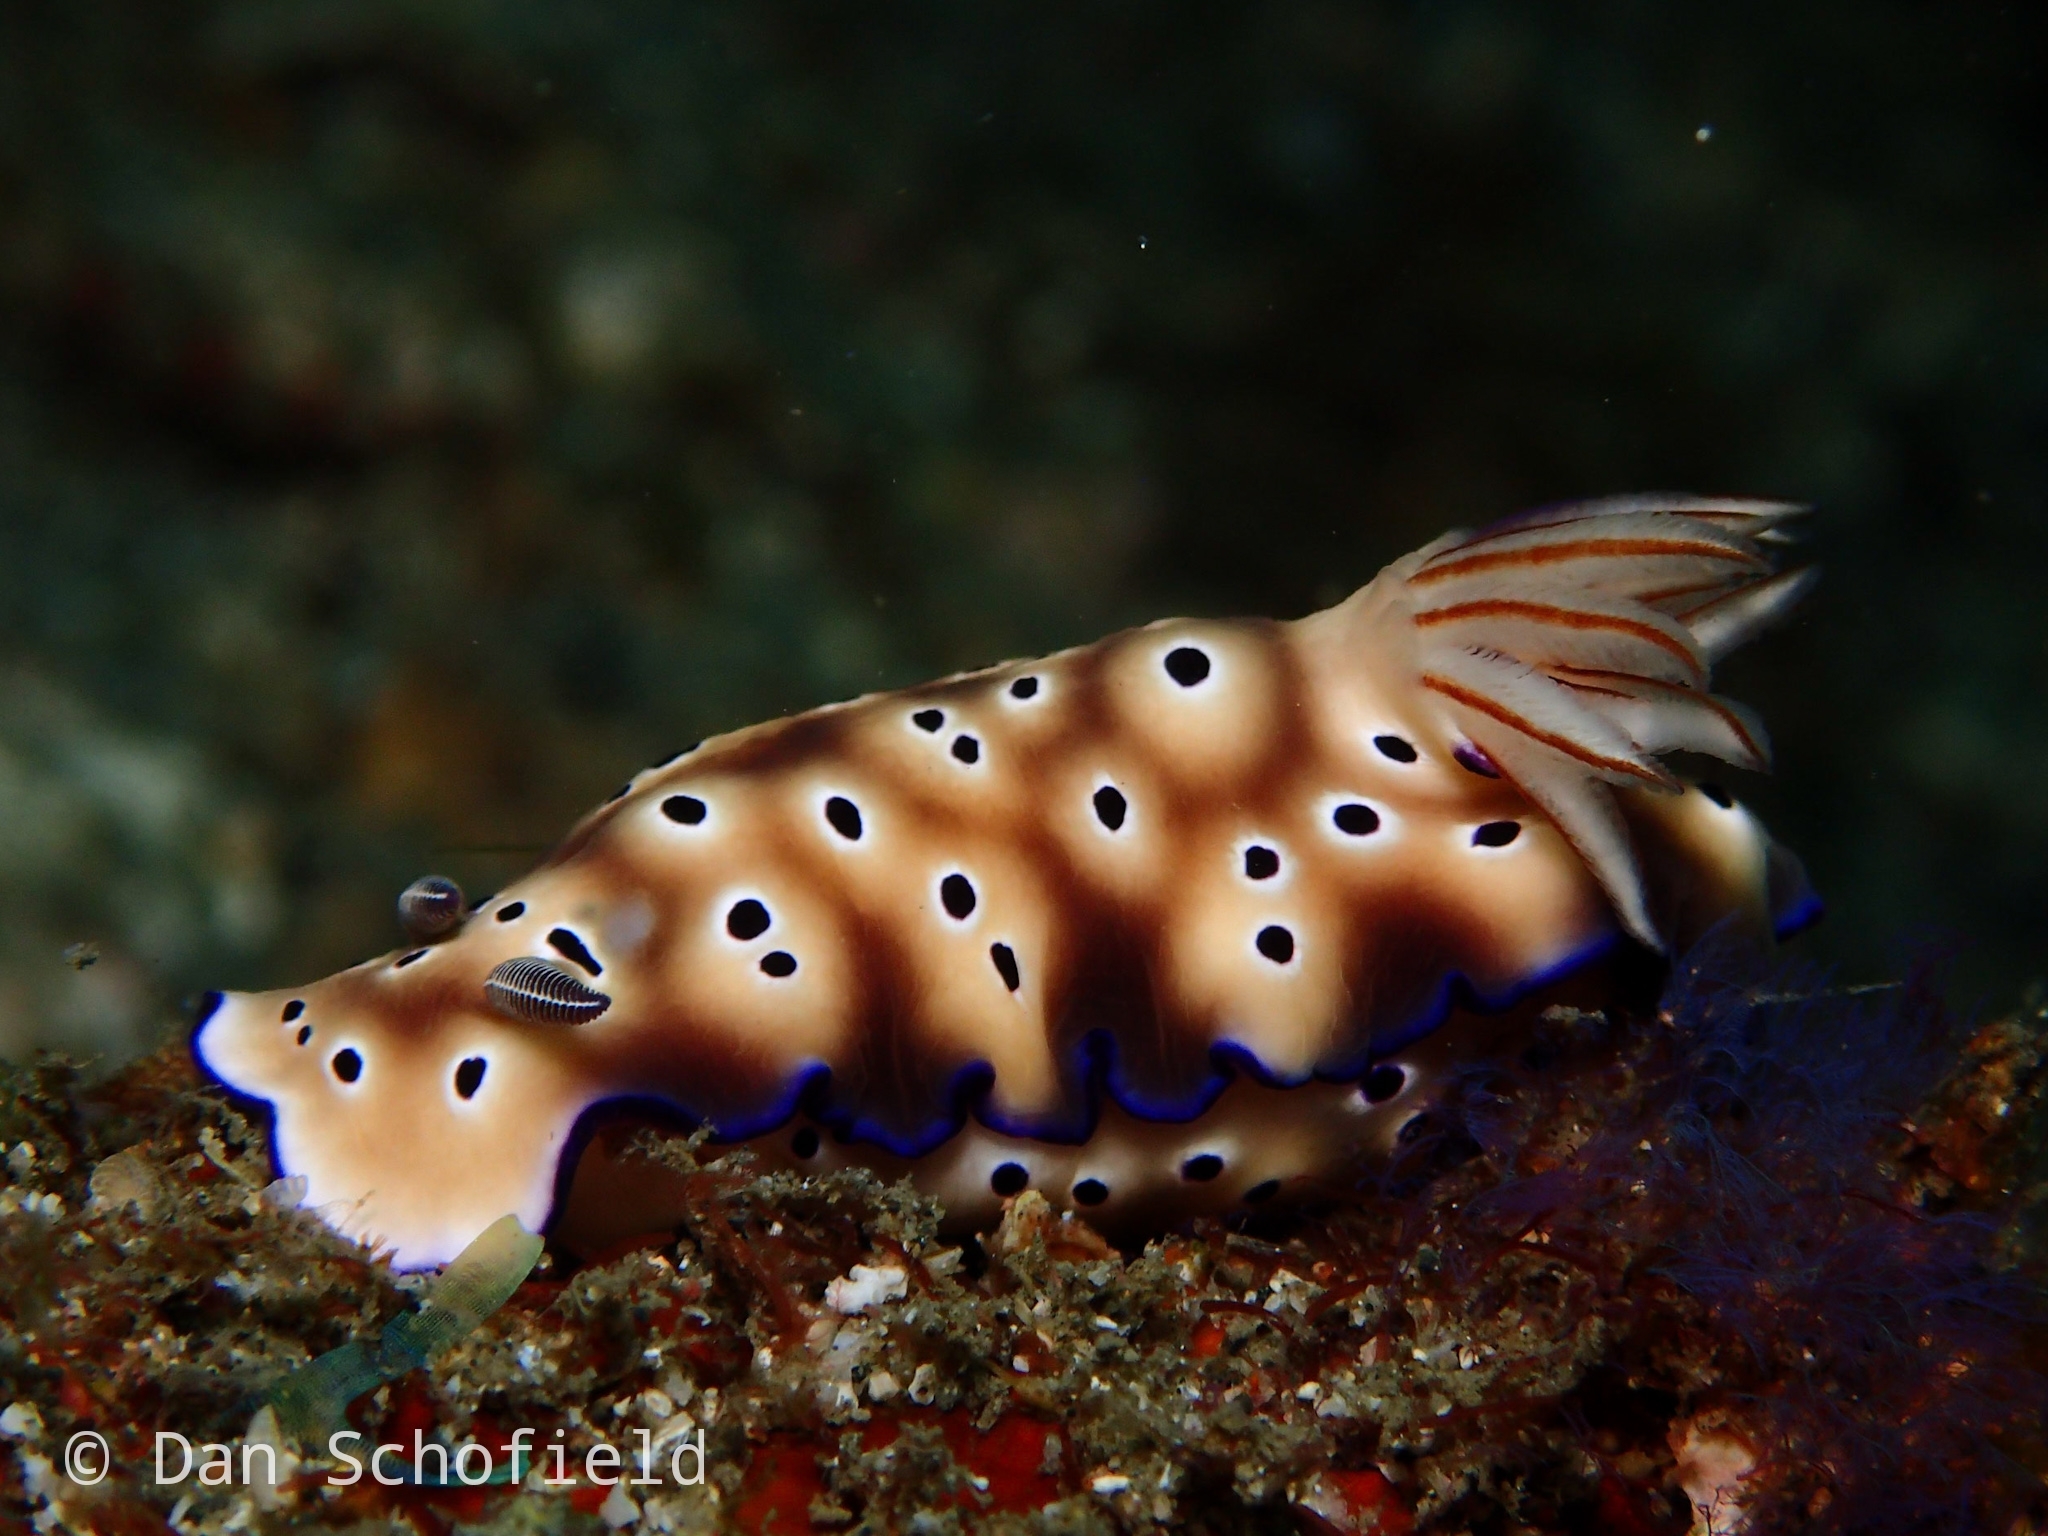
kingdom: Animalia
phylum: Mollusca
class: Gastropoda
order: Nudibranchia
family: Chromodorididae
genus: Hypselodoris
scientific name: Hypselodoris tryoni
